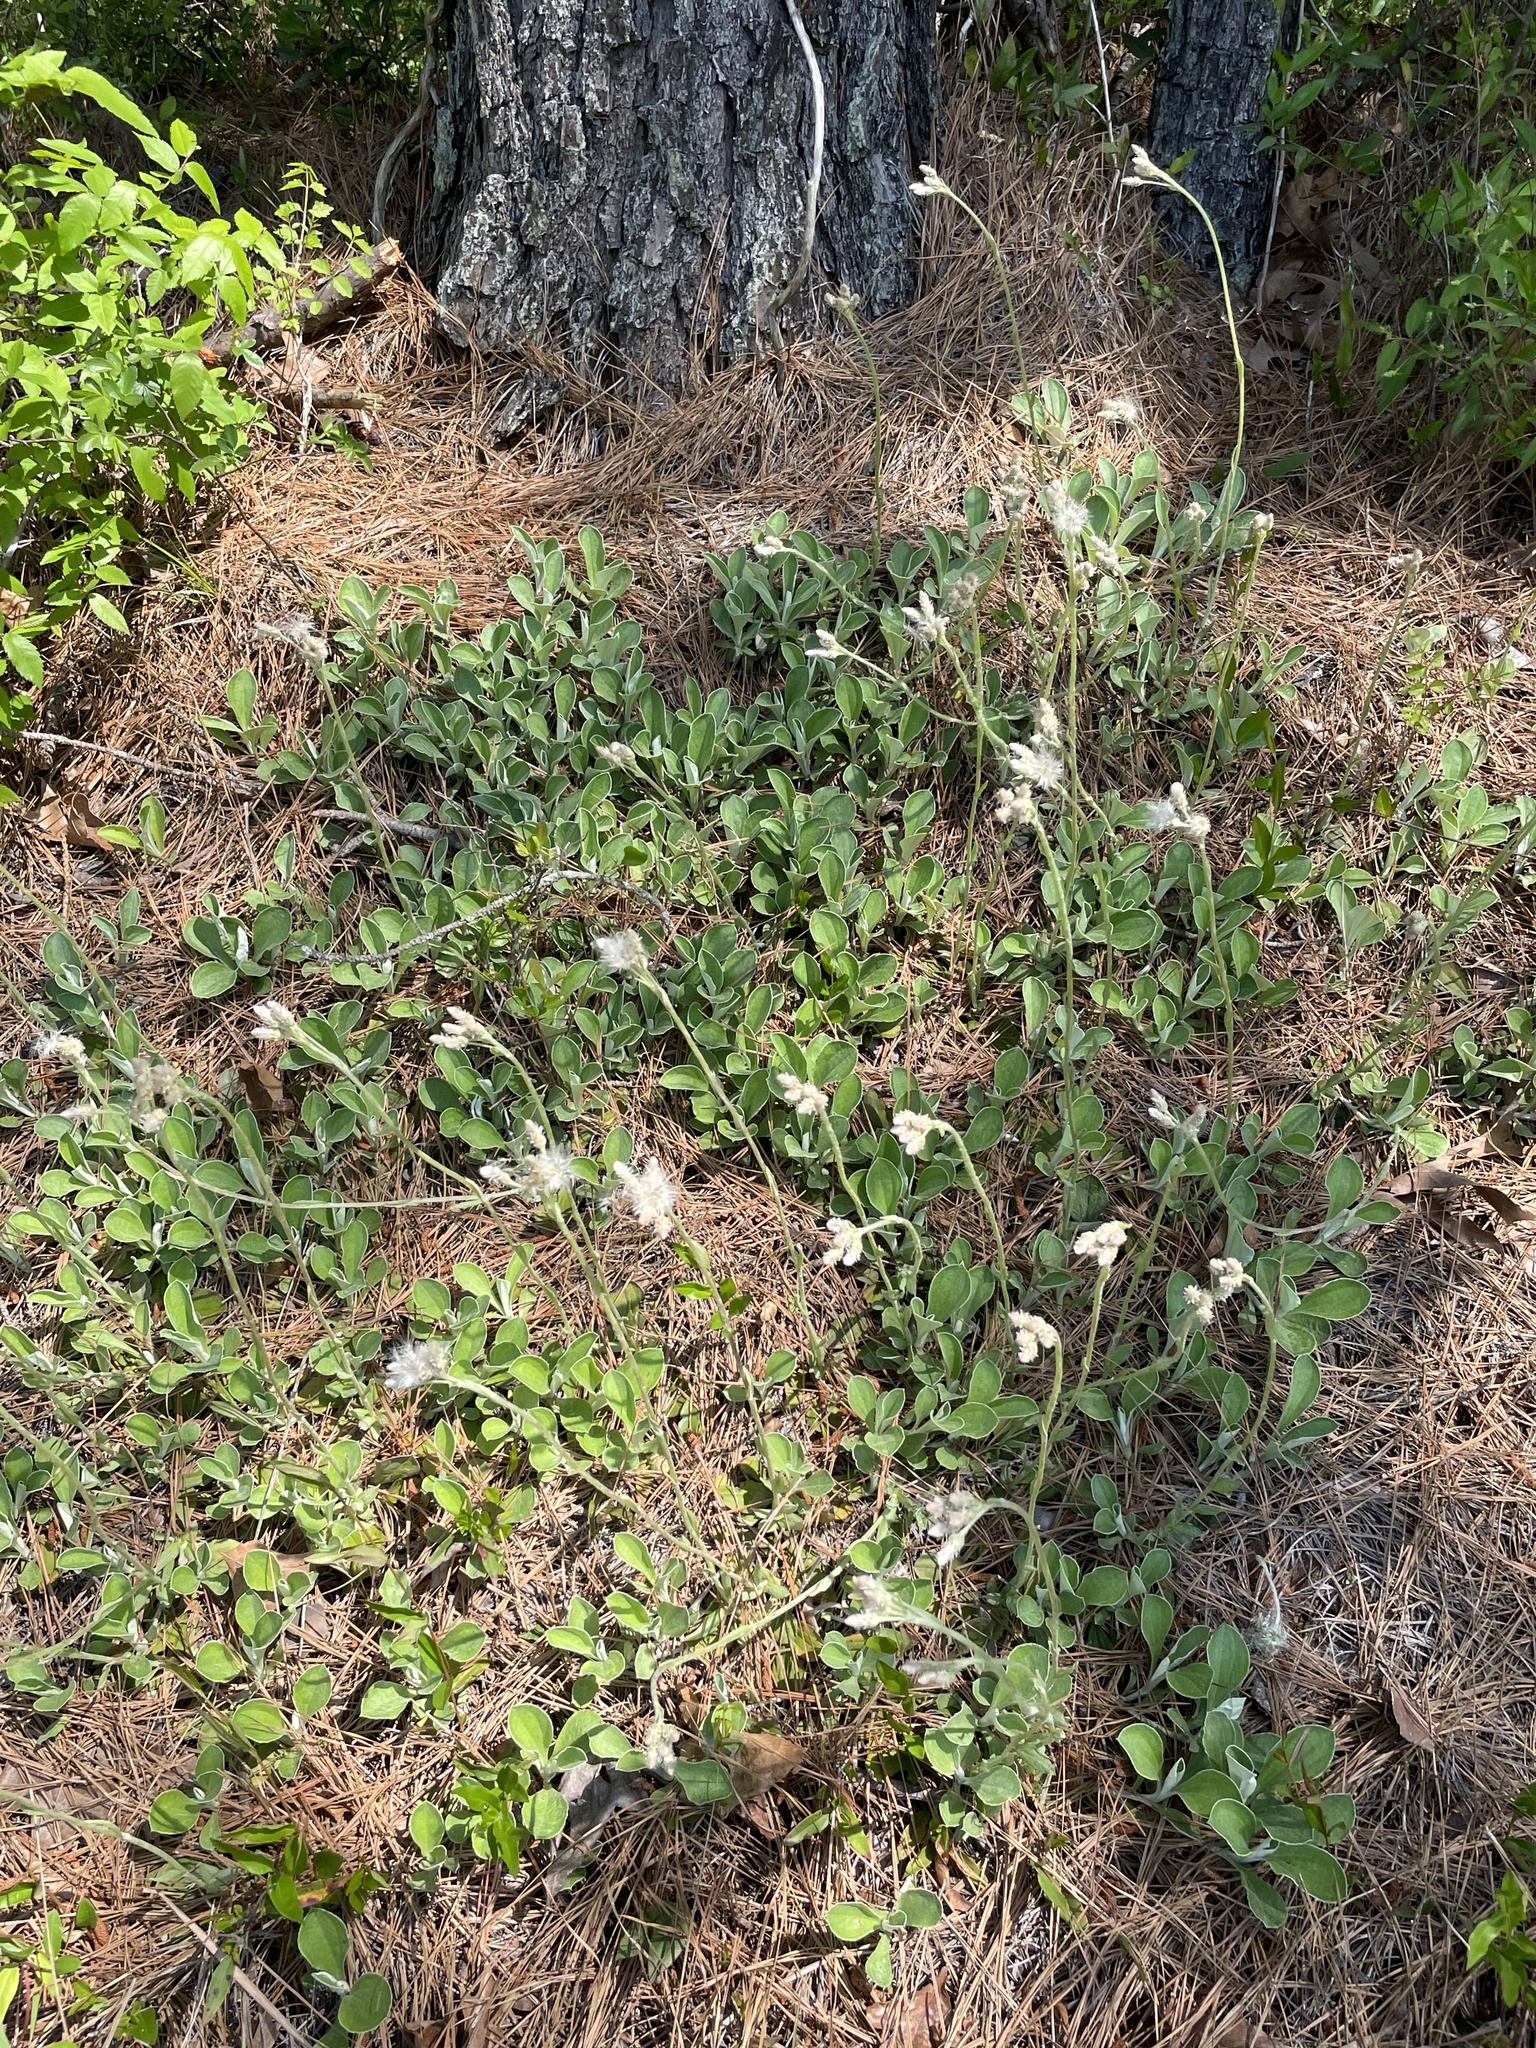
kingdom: Plantae
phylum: Tracheophyta
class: Magnoliopsida
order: Asterales
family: Asteraceae
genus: Antennaria
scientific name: Antennaria parlinii
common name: Parlin's pussytoes
